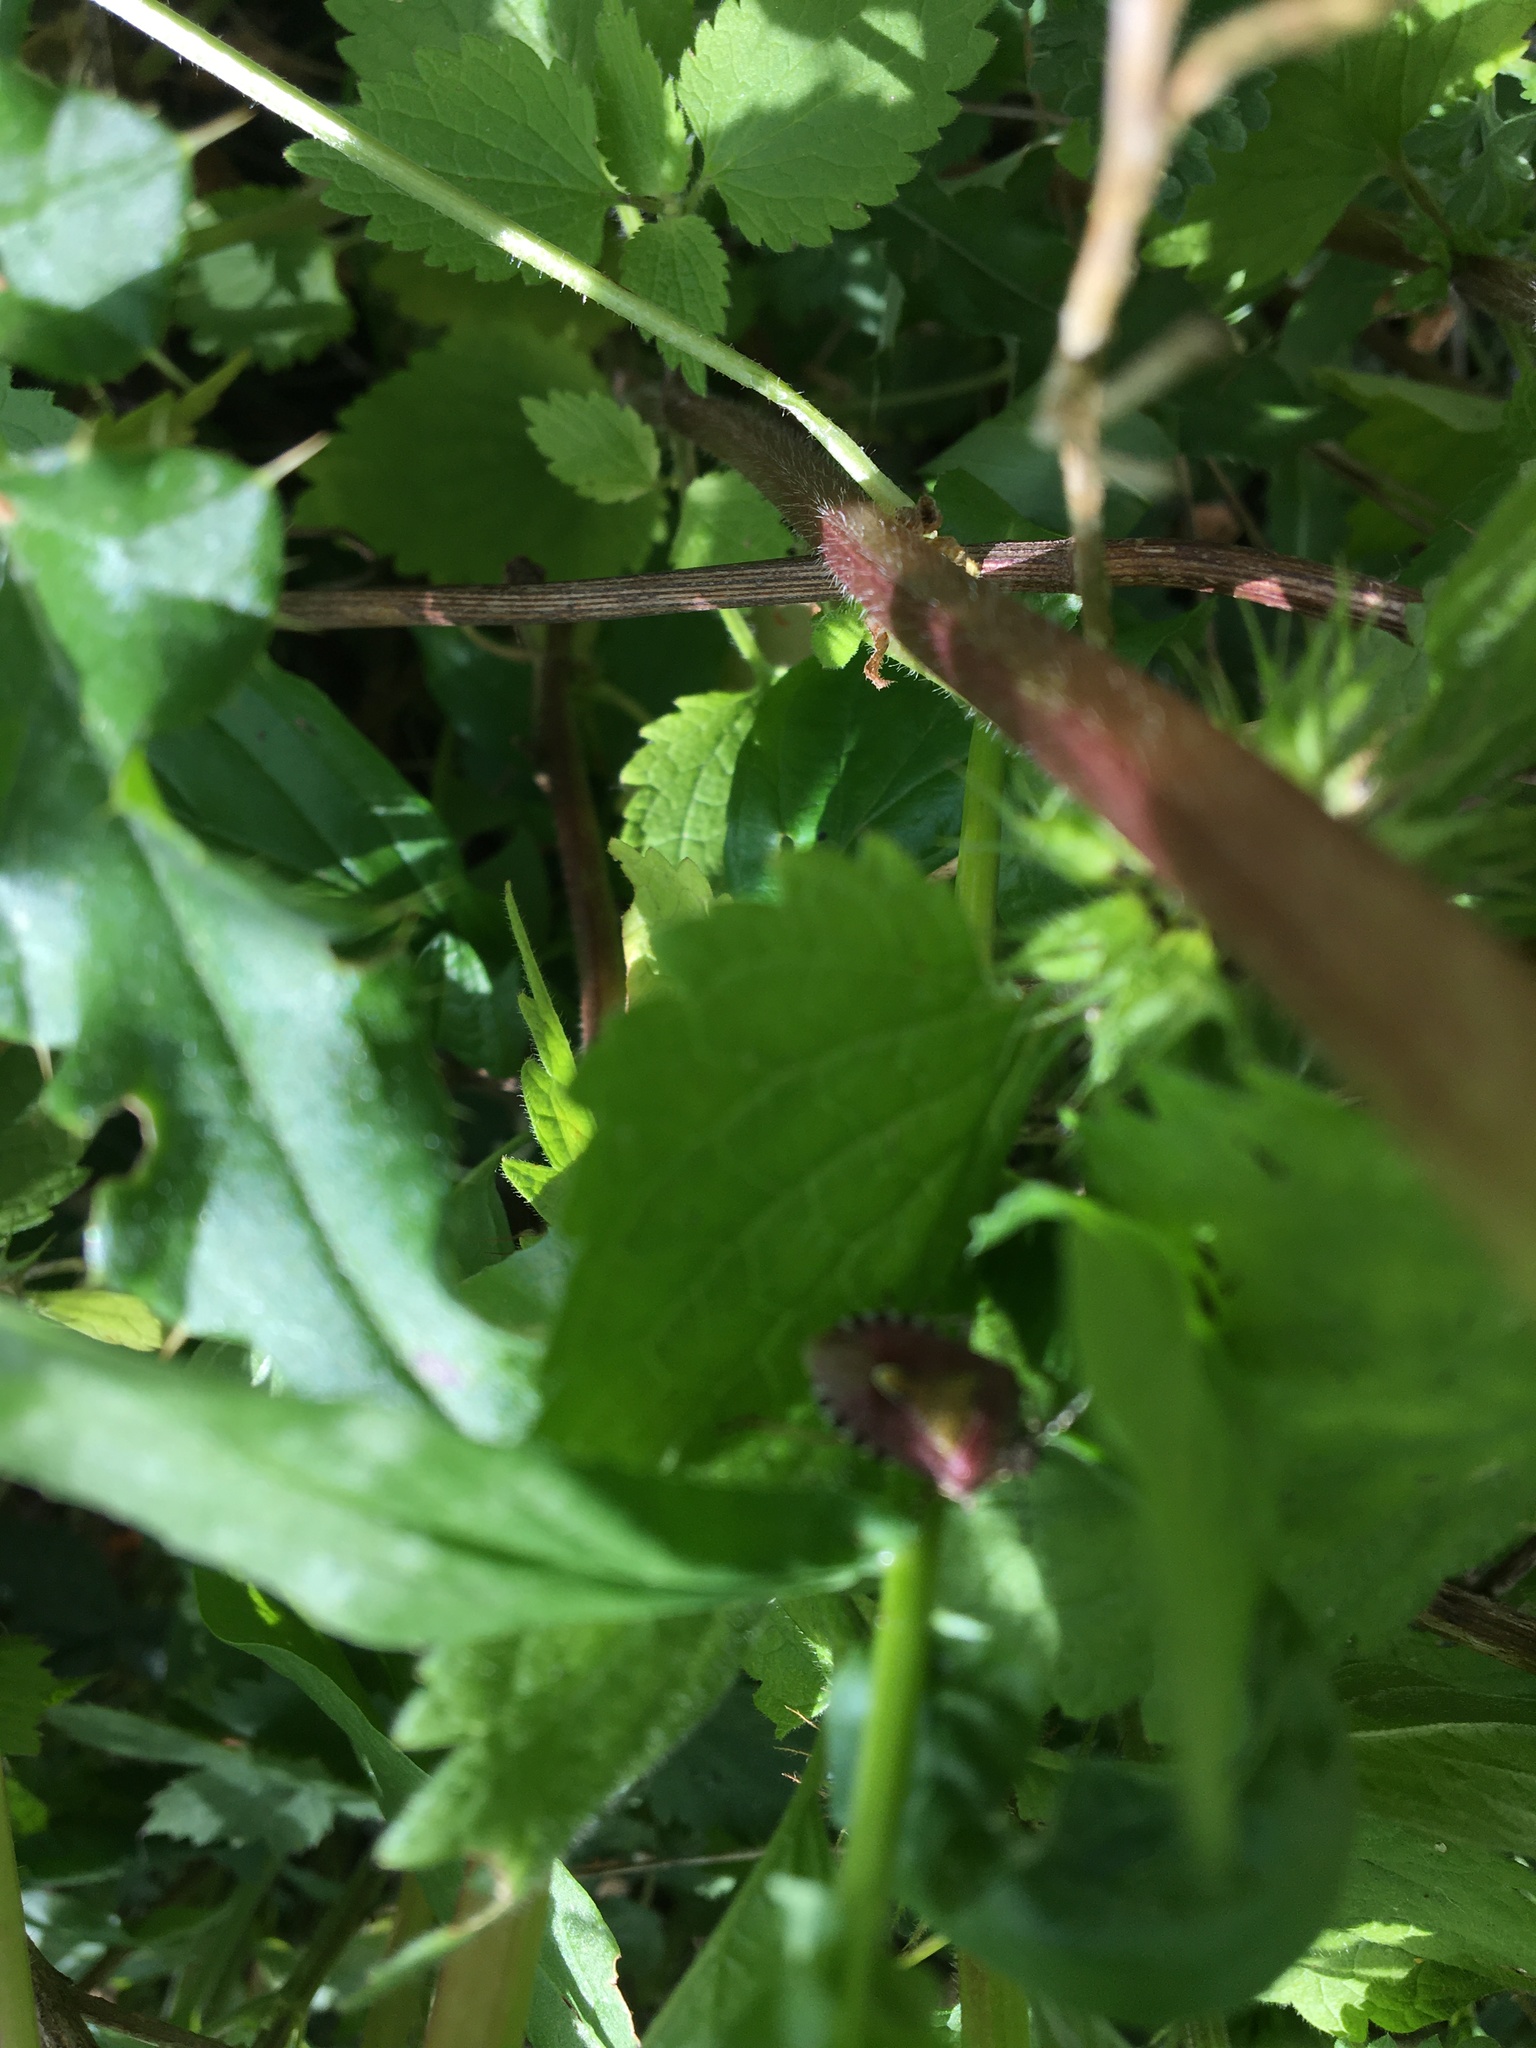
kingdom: Animalia
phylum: Arthropoda
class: Insecta
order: Hemiptera
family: Pentatomidae
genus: Dolycoris
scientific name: Dolycoris baccarum
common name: Sloe bug
